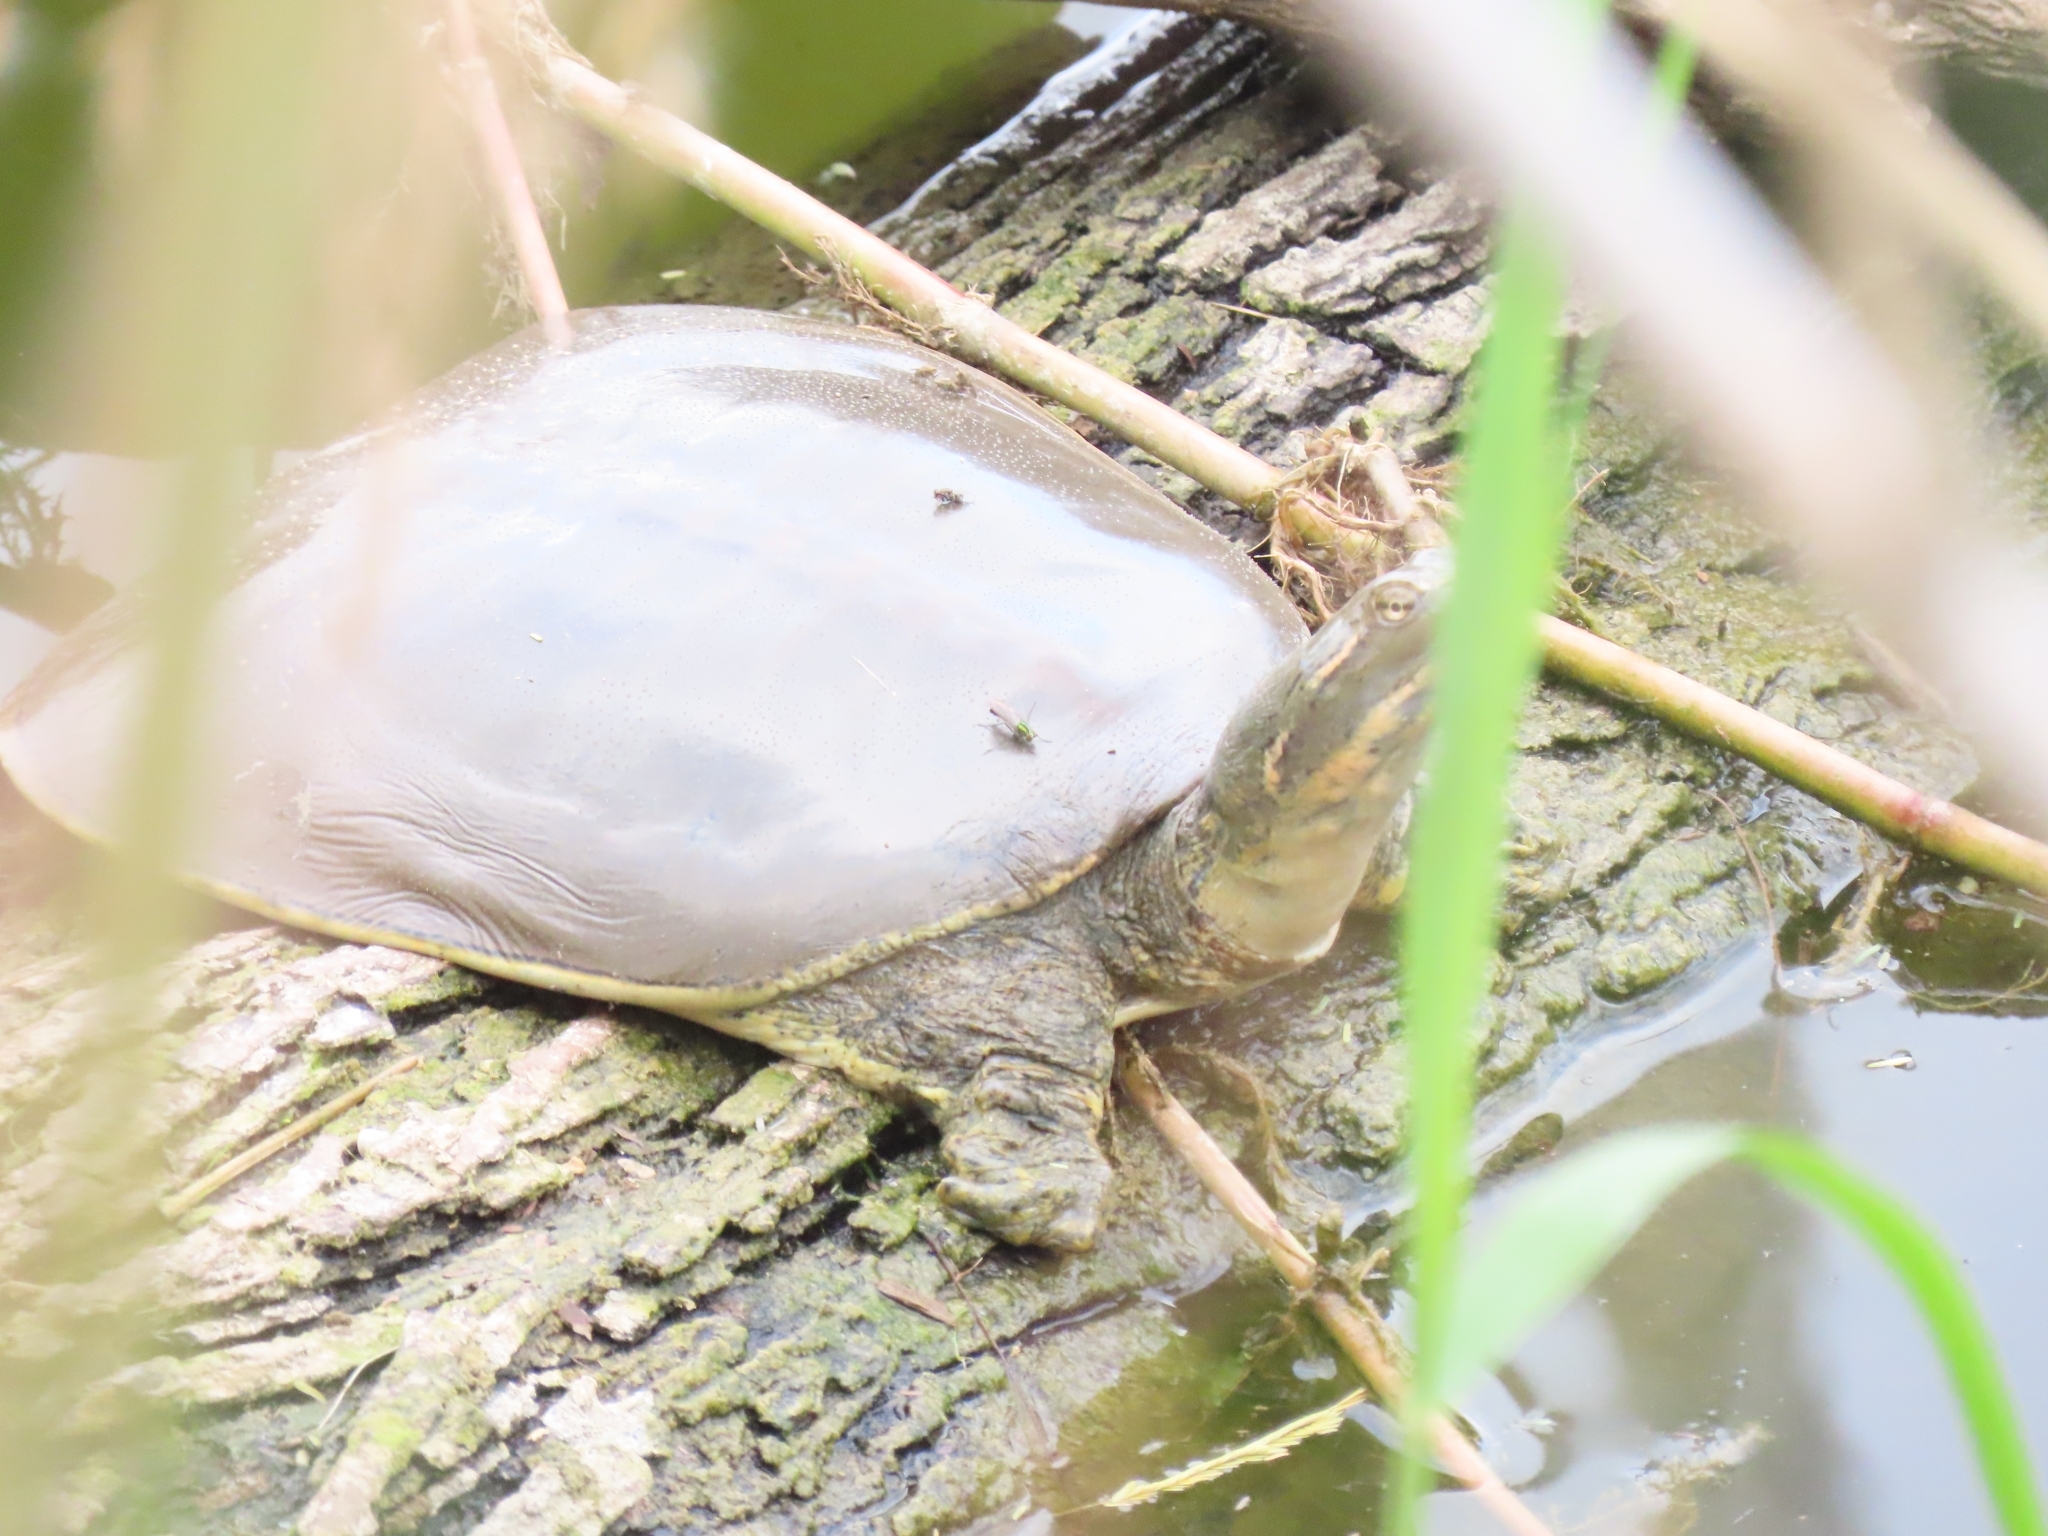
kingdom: Animalia
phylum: Chordata
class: Testudines
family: Trionychidae
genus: Apalone
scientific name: Apalone spinifera
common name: Spiny softshell turtle
